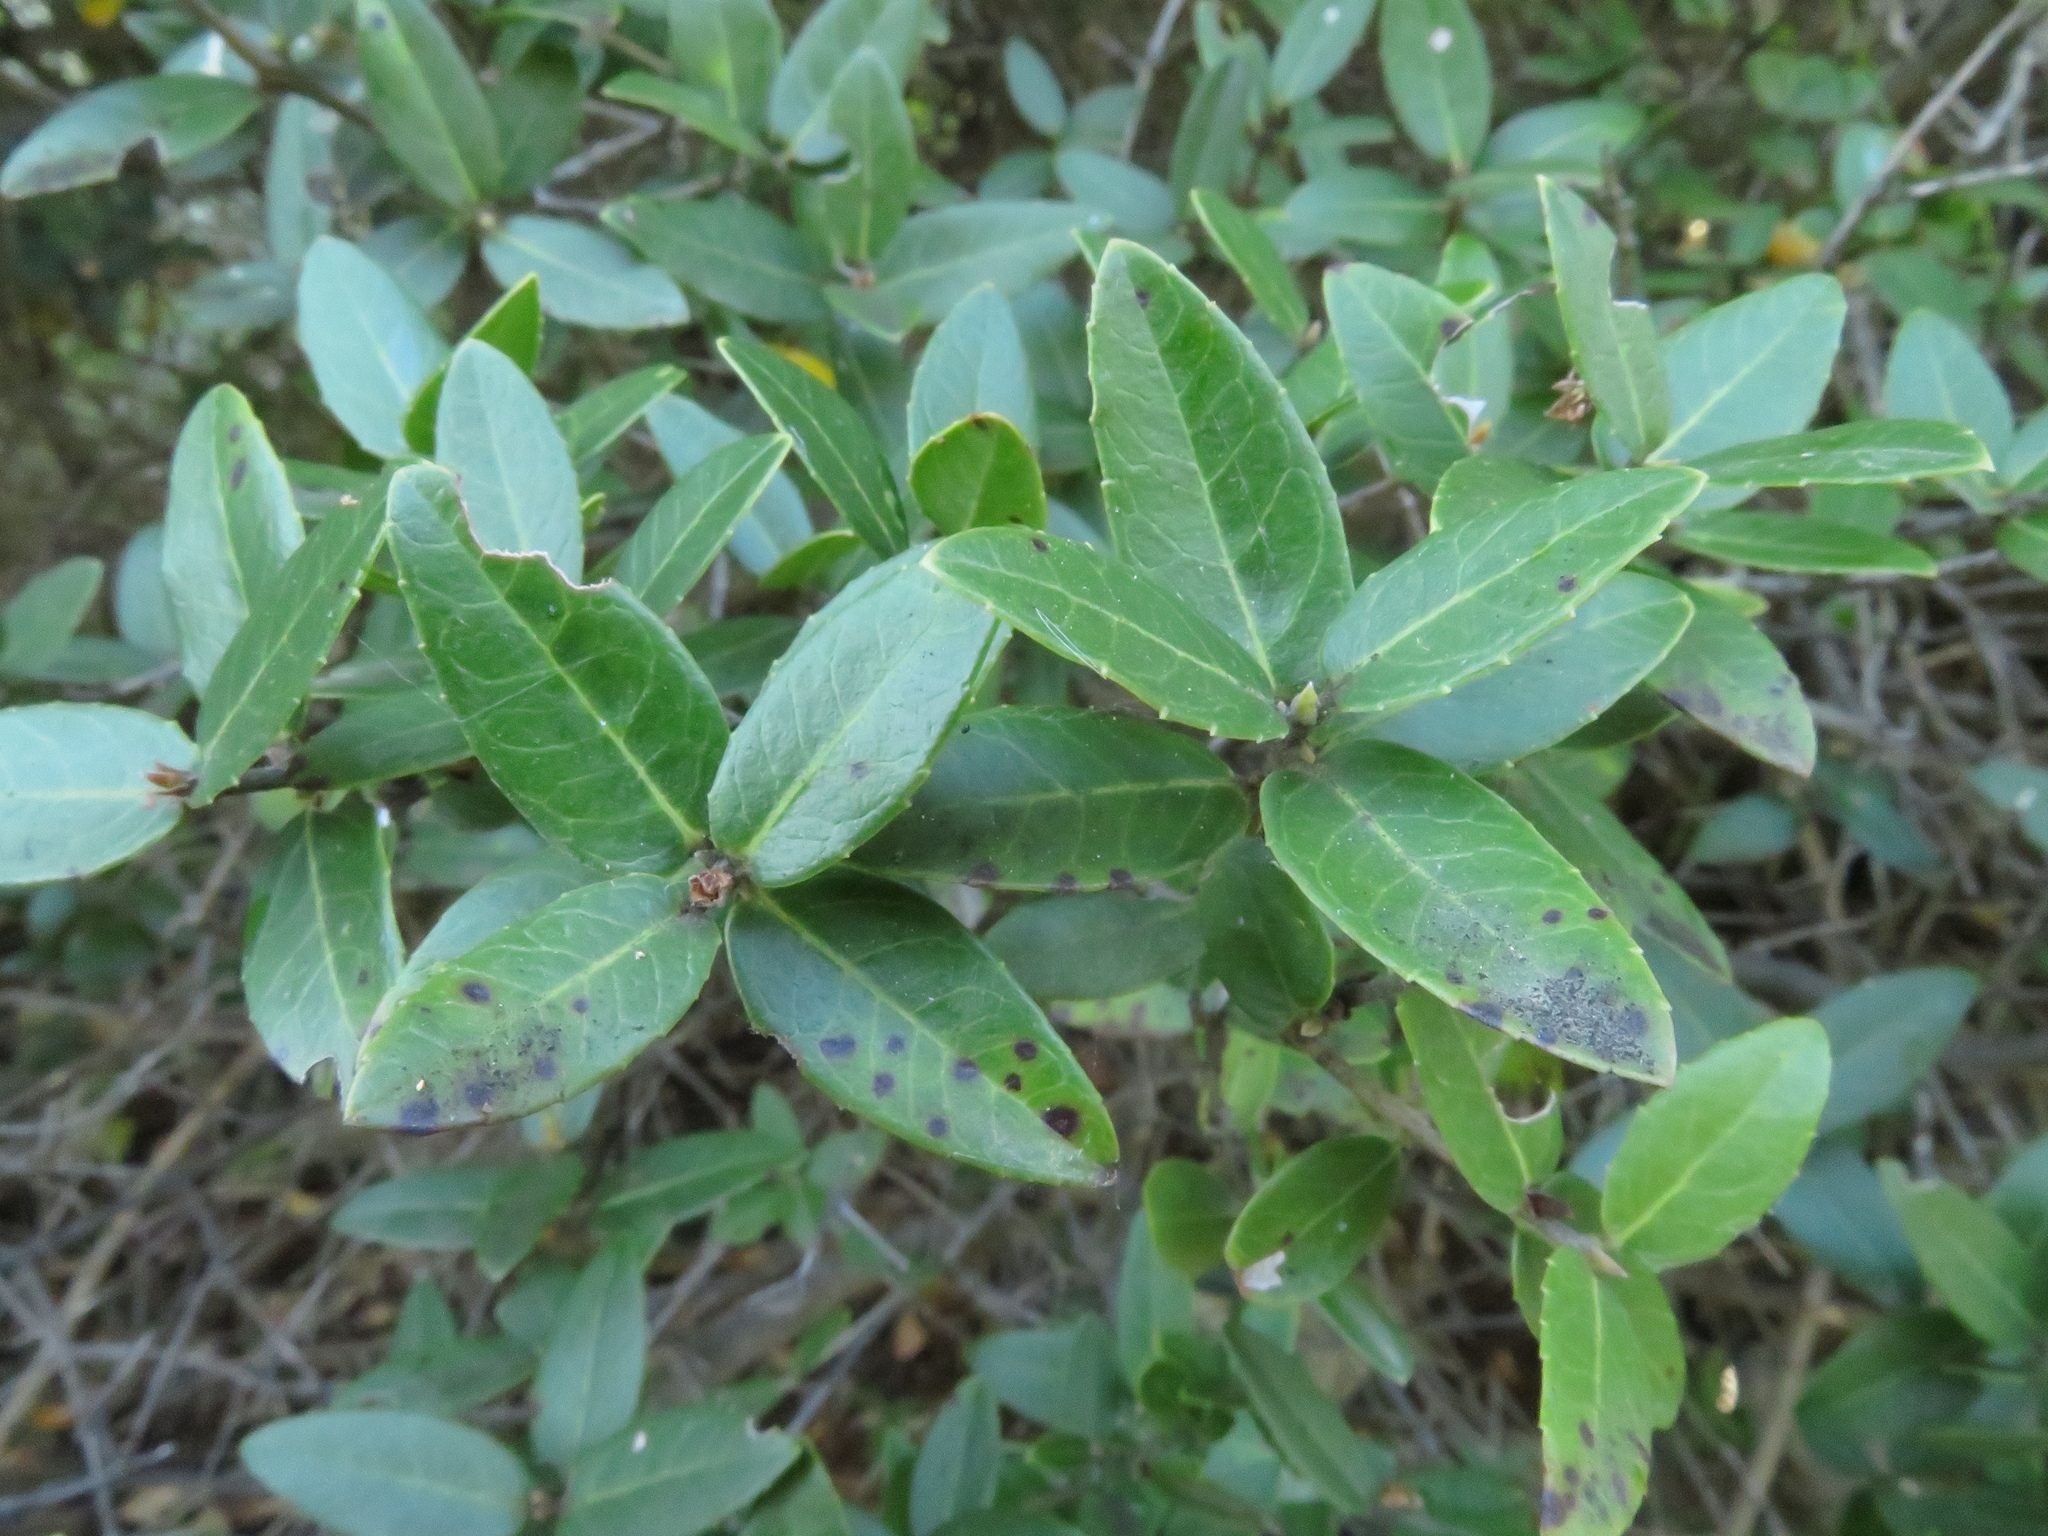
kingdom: Plantae
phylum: Tracheophyta
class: Magnoliopsida
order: Lamiales
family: Oleaceae
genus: Phillyrea
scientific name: Phillyrea latifolia
